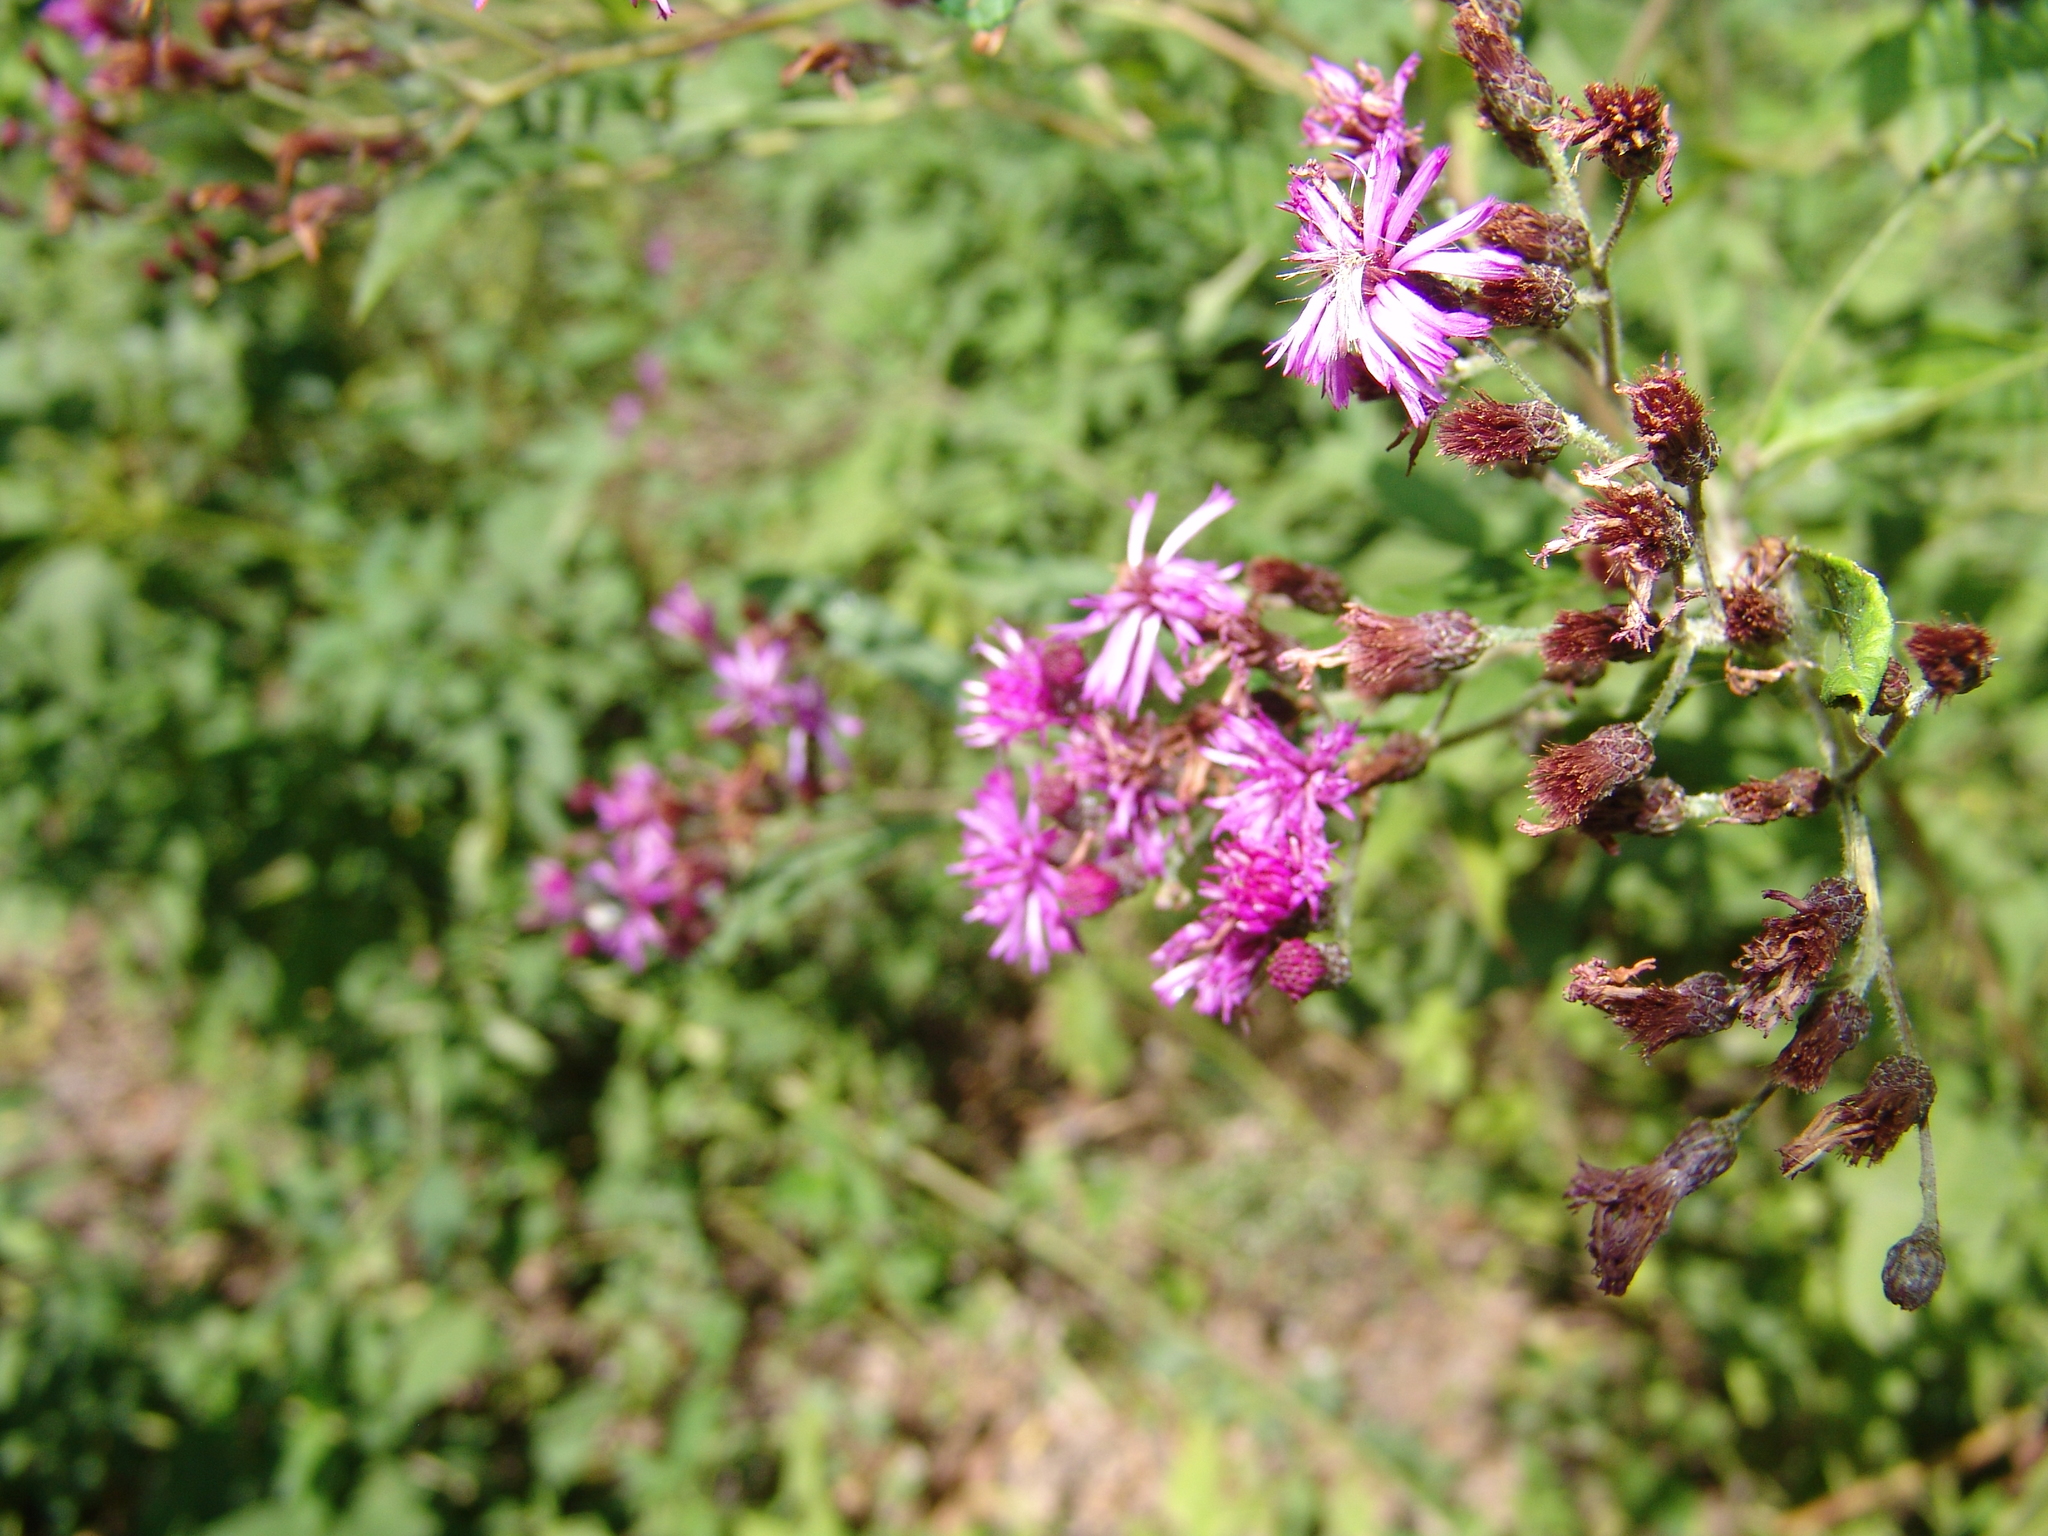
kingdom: Plantae
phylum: Tracheophyta
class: Magnoliopsida
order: Asterales
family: Asteraceae
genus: Vernonia
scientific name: Vernonia gigantea
